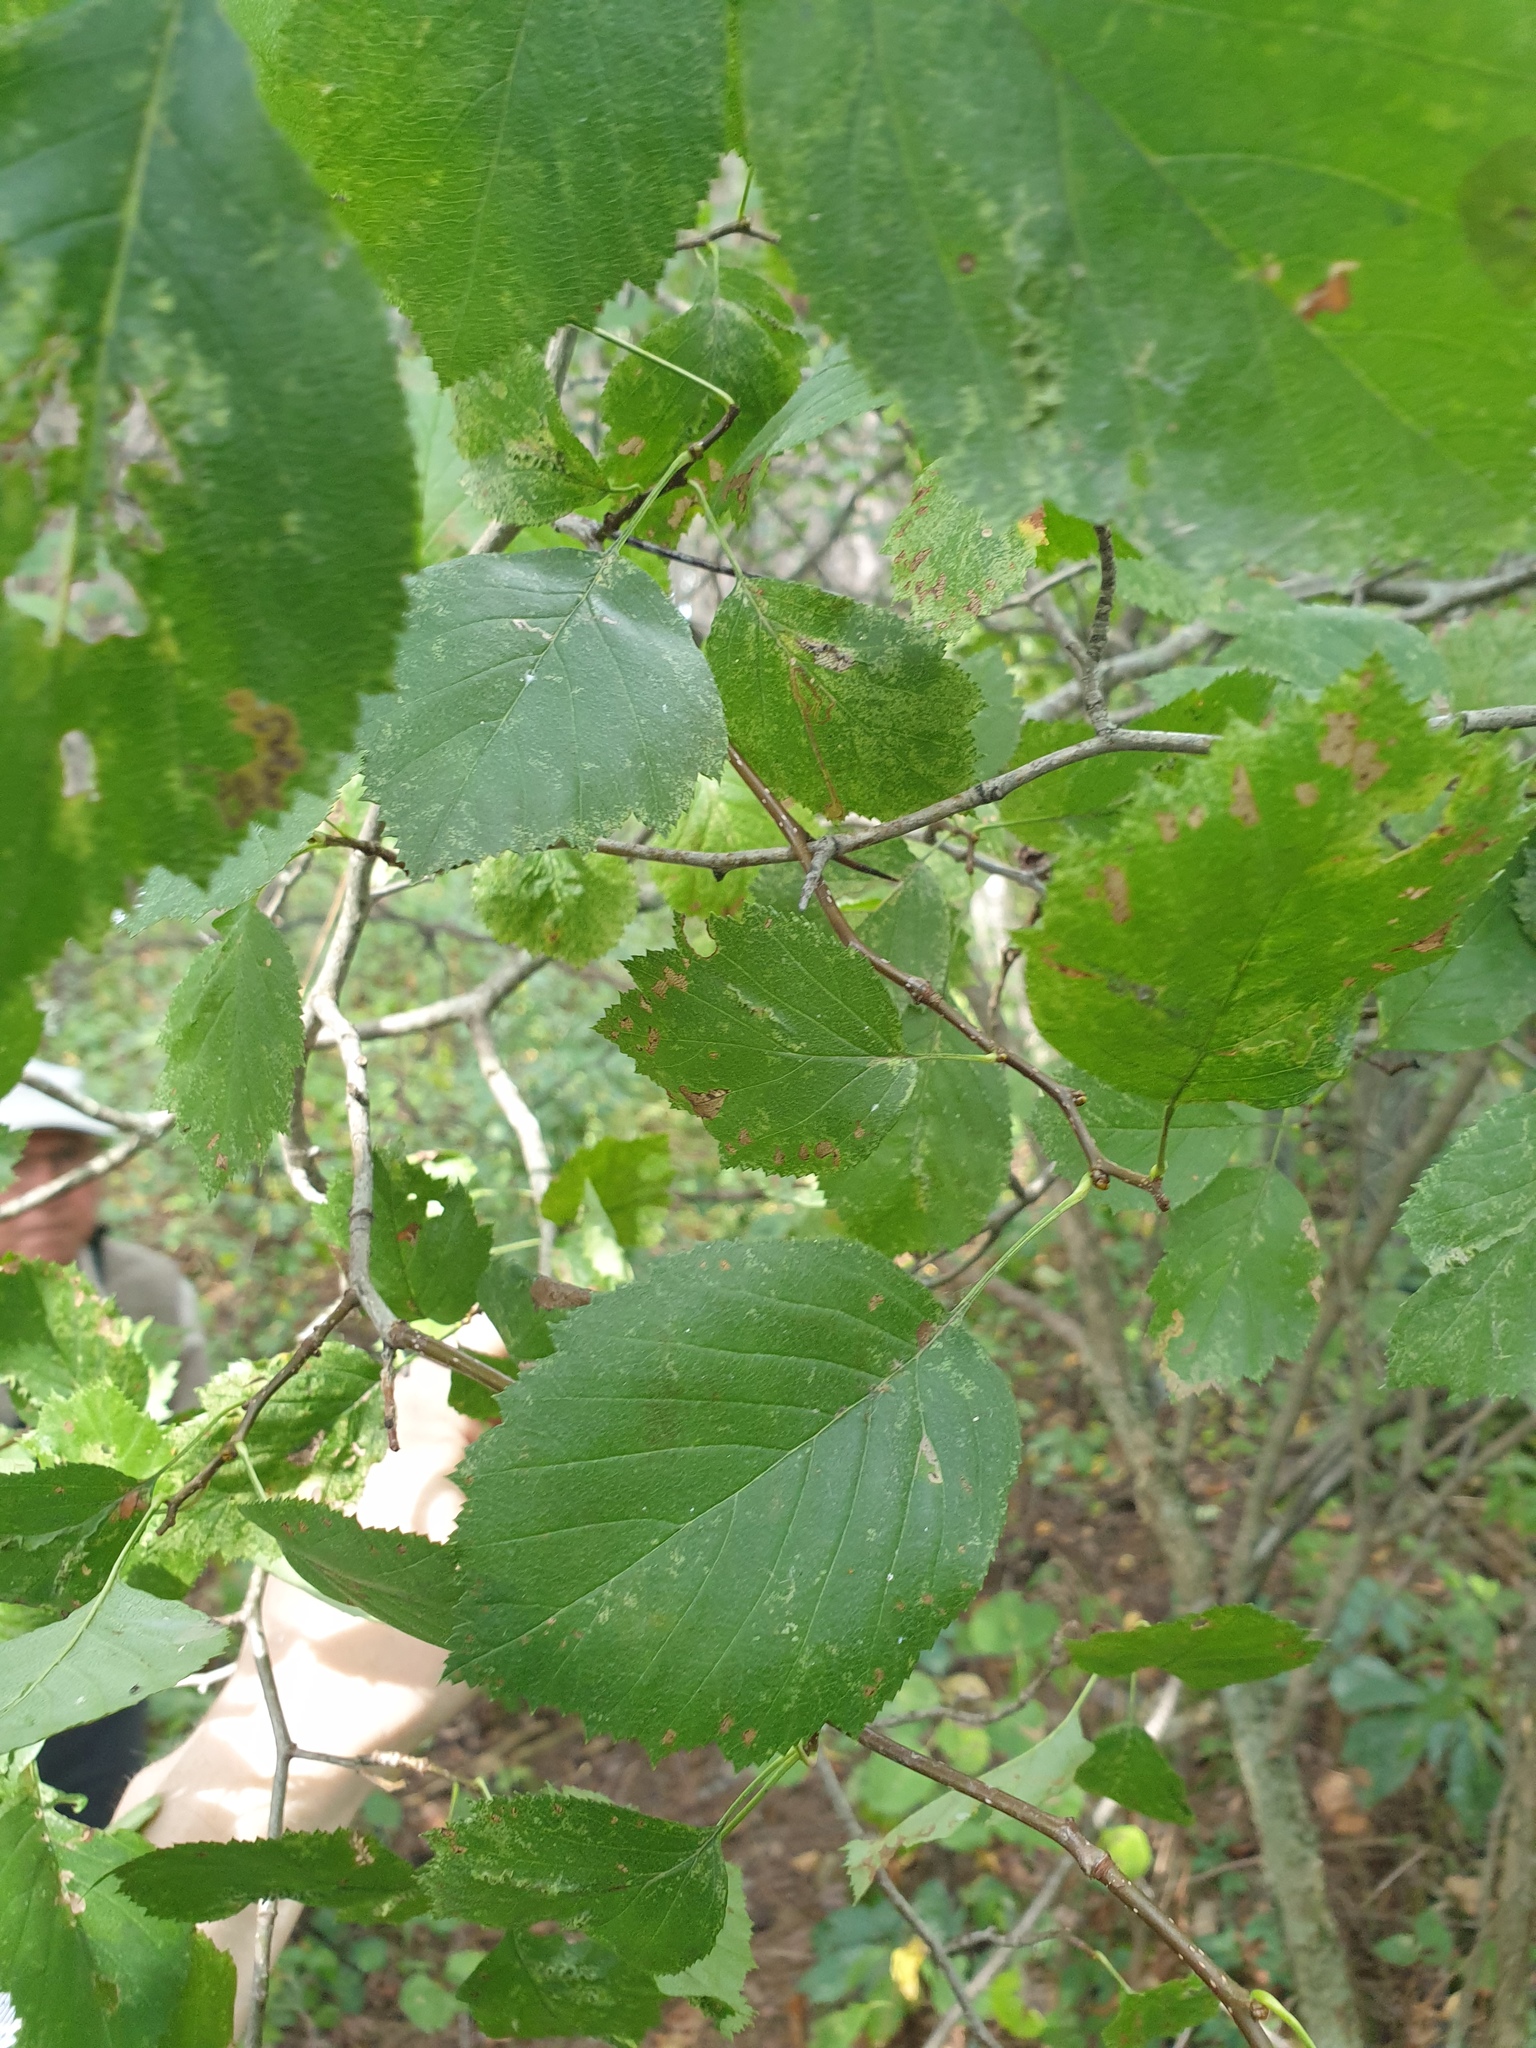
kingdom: Plantae
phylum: Tracheophyta
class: Magnoliopsida
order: Rosales
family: Rosaceae
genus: Crataegus
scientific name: Crataegus scabrida
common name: Rough hawthorn
